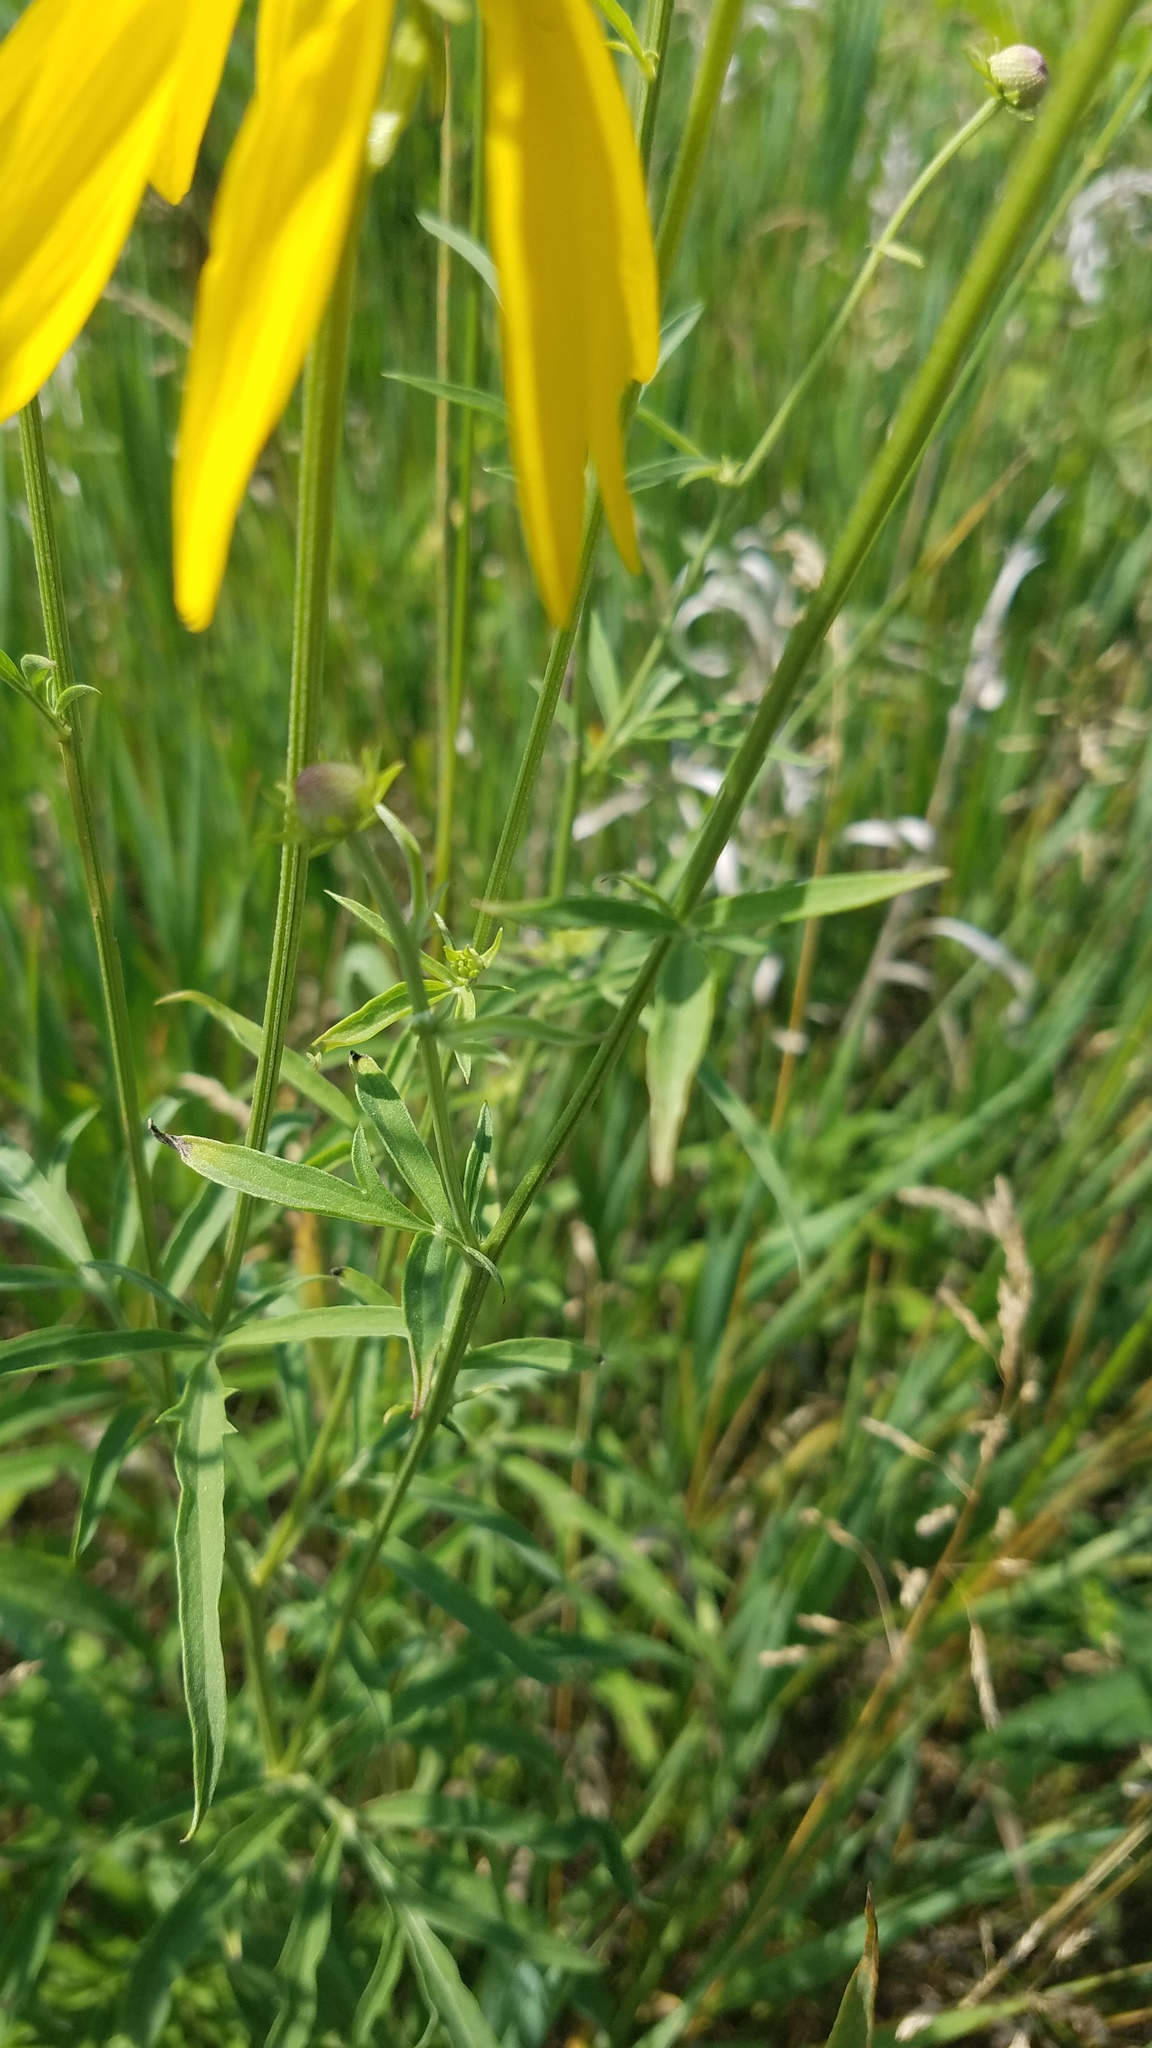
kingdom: Plantae
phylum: Tracheophyta
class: Magnoliopsida
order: Asterales
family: Asteraceae
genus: Ratibida
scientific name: Ratibida pinnata
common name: Drooping prairie-coneflower
